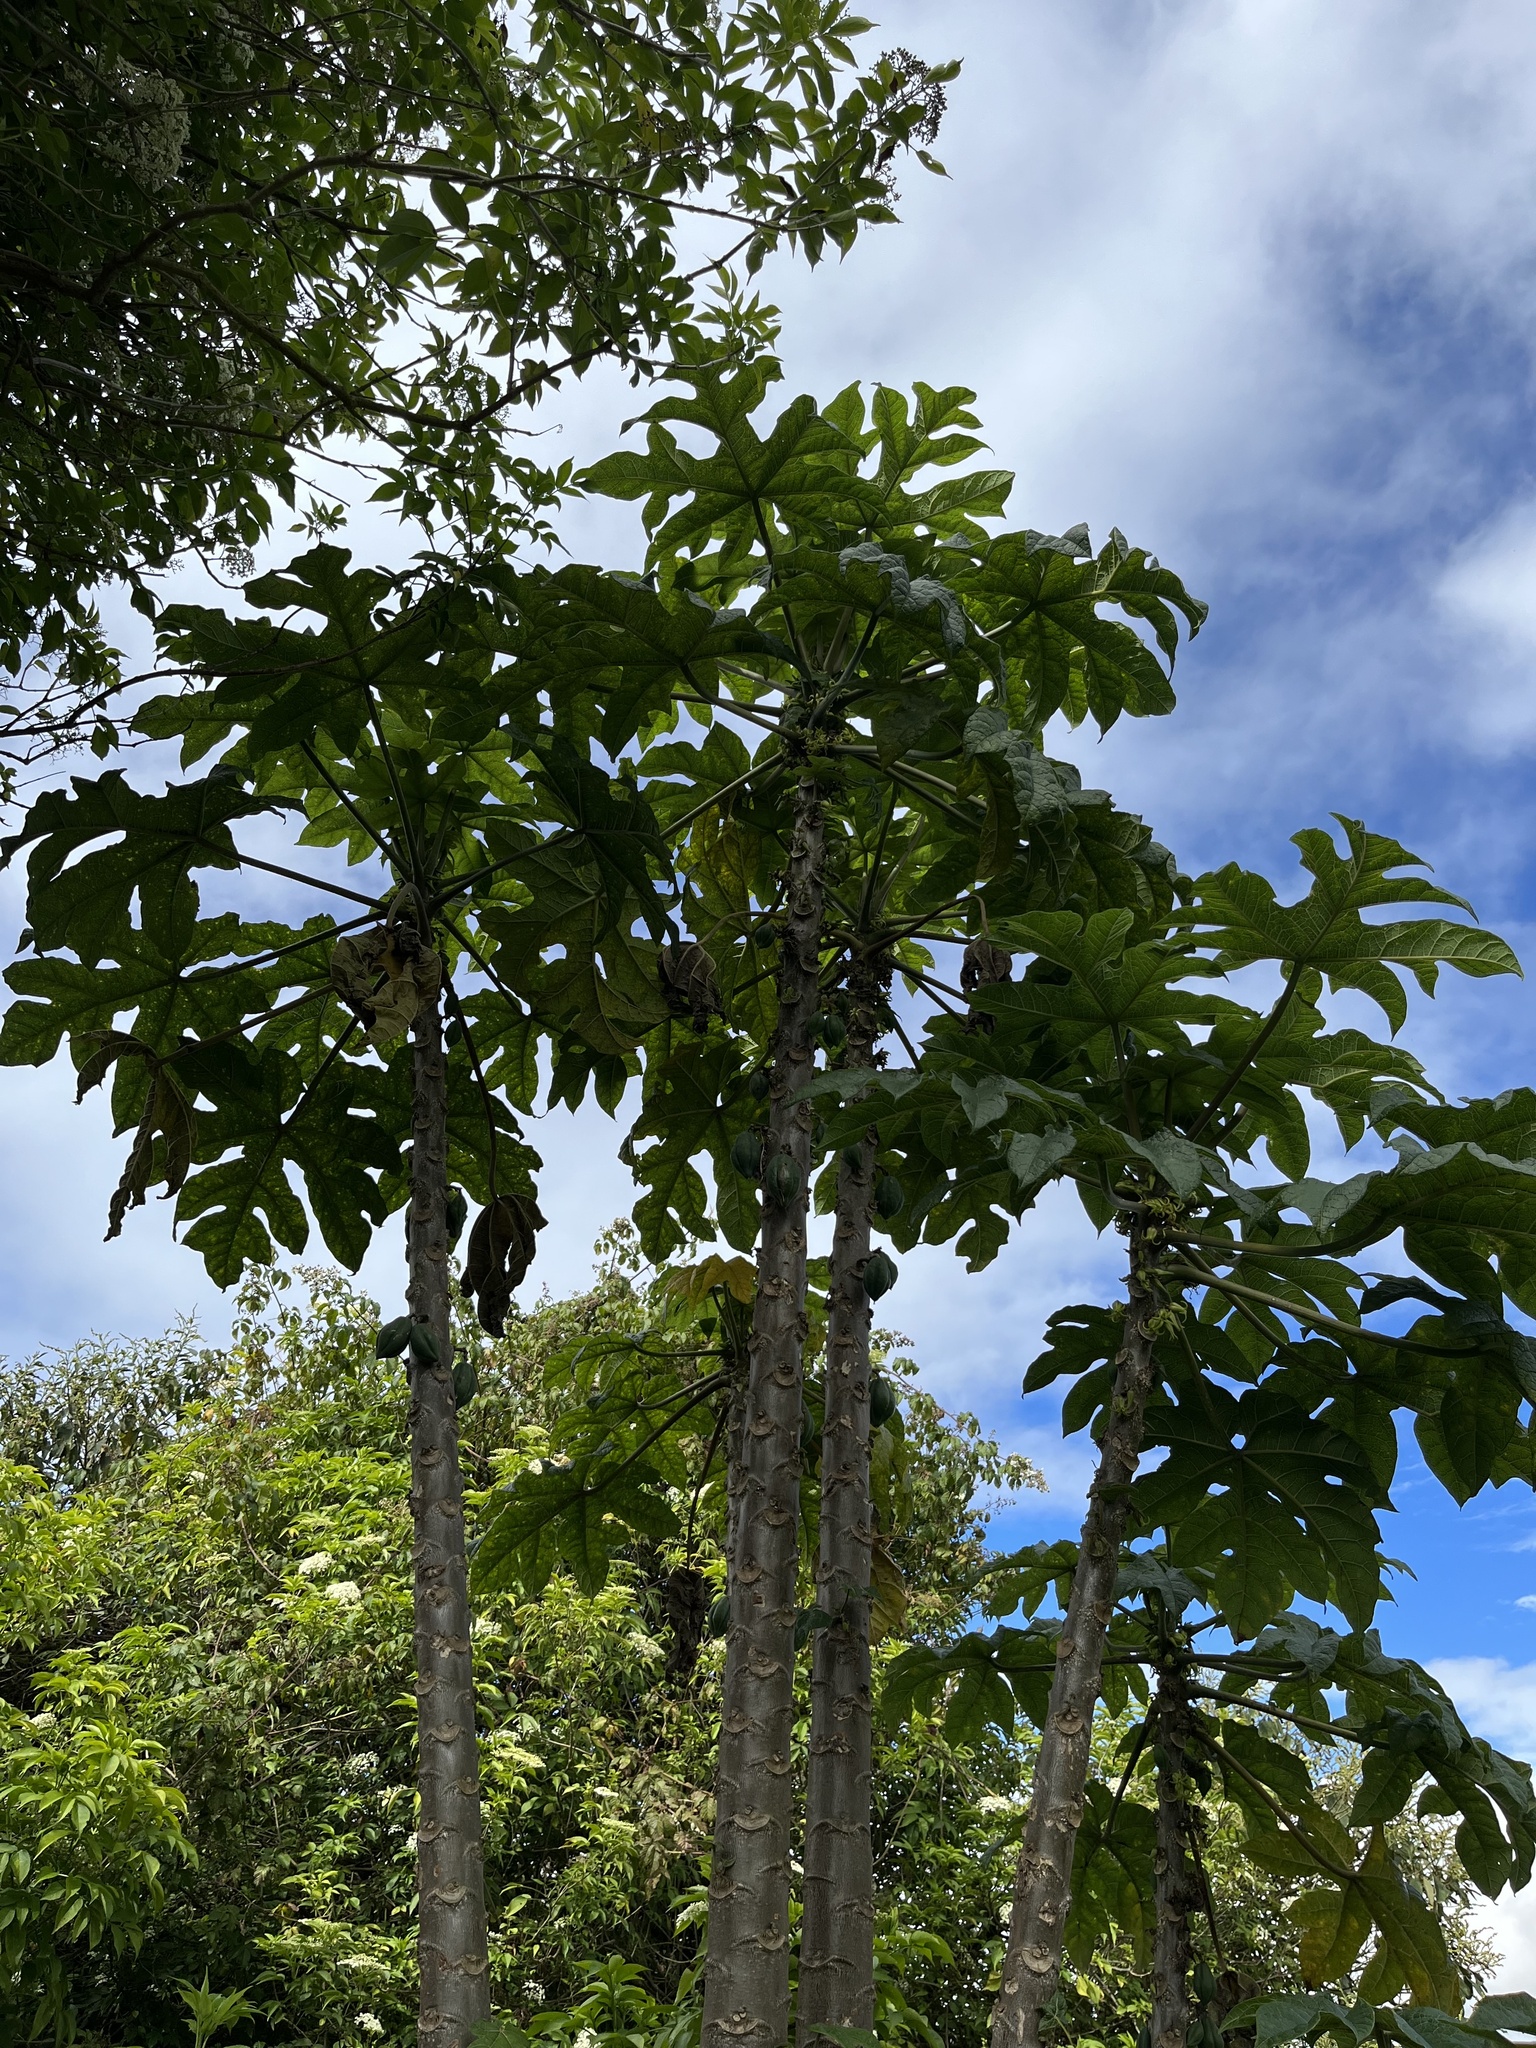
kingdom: Plantae
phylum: Tracheophyta
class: Magnoliopsida
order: Brassicales
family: Caricaceae
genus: Vasconcellea
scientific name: Vasconcellea pubescens
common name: Mountain papaya
